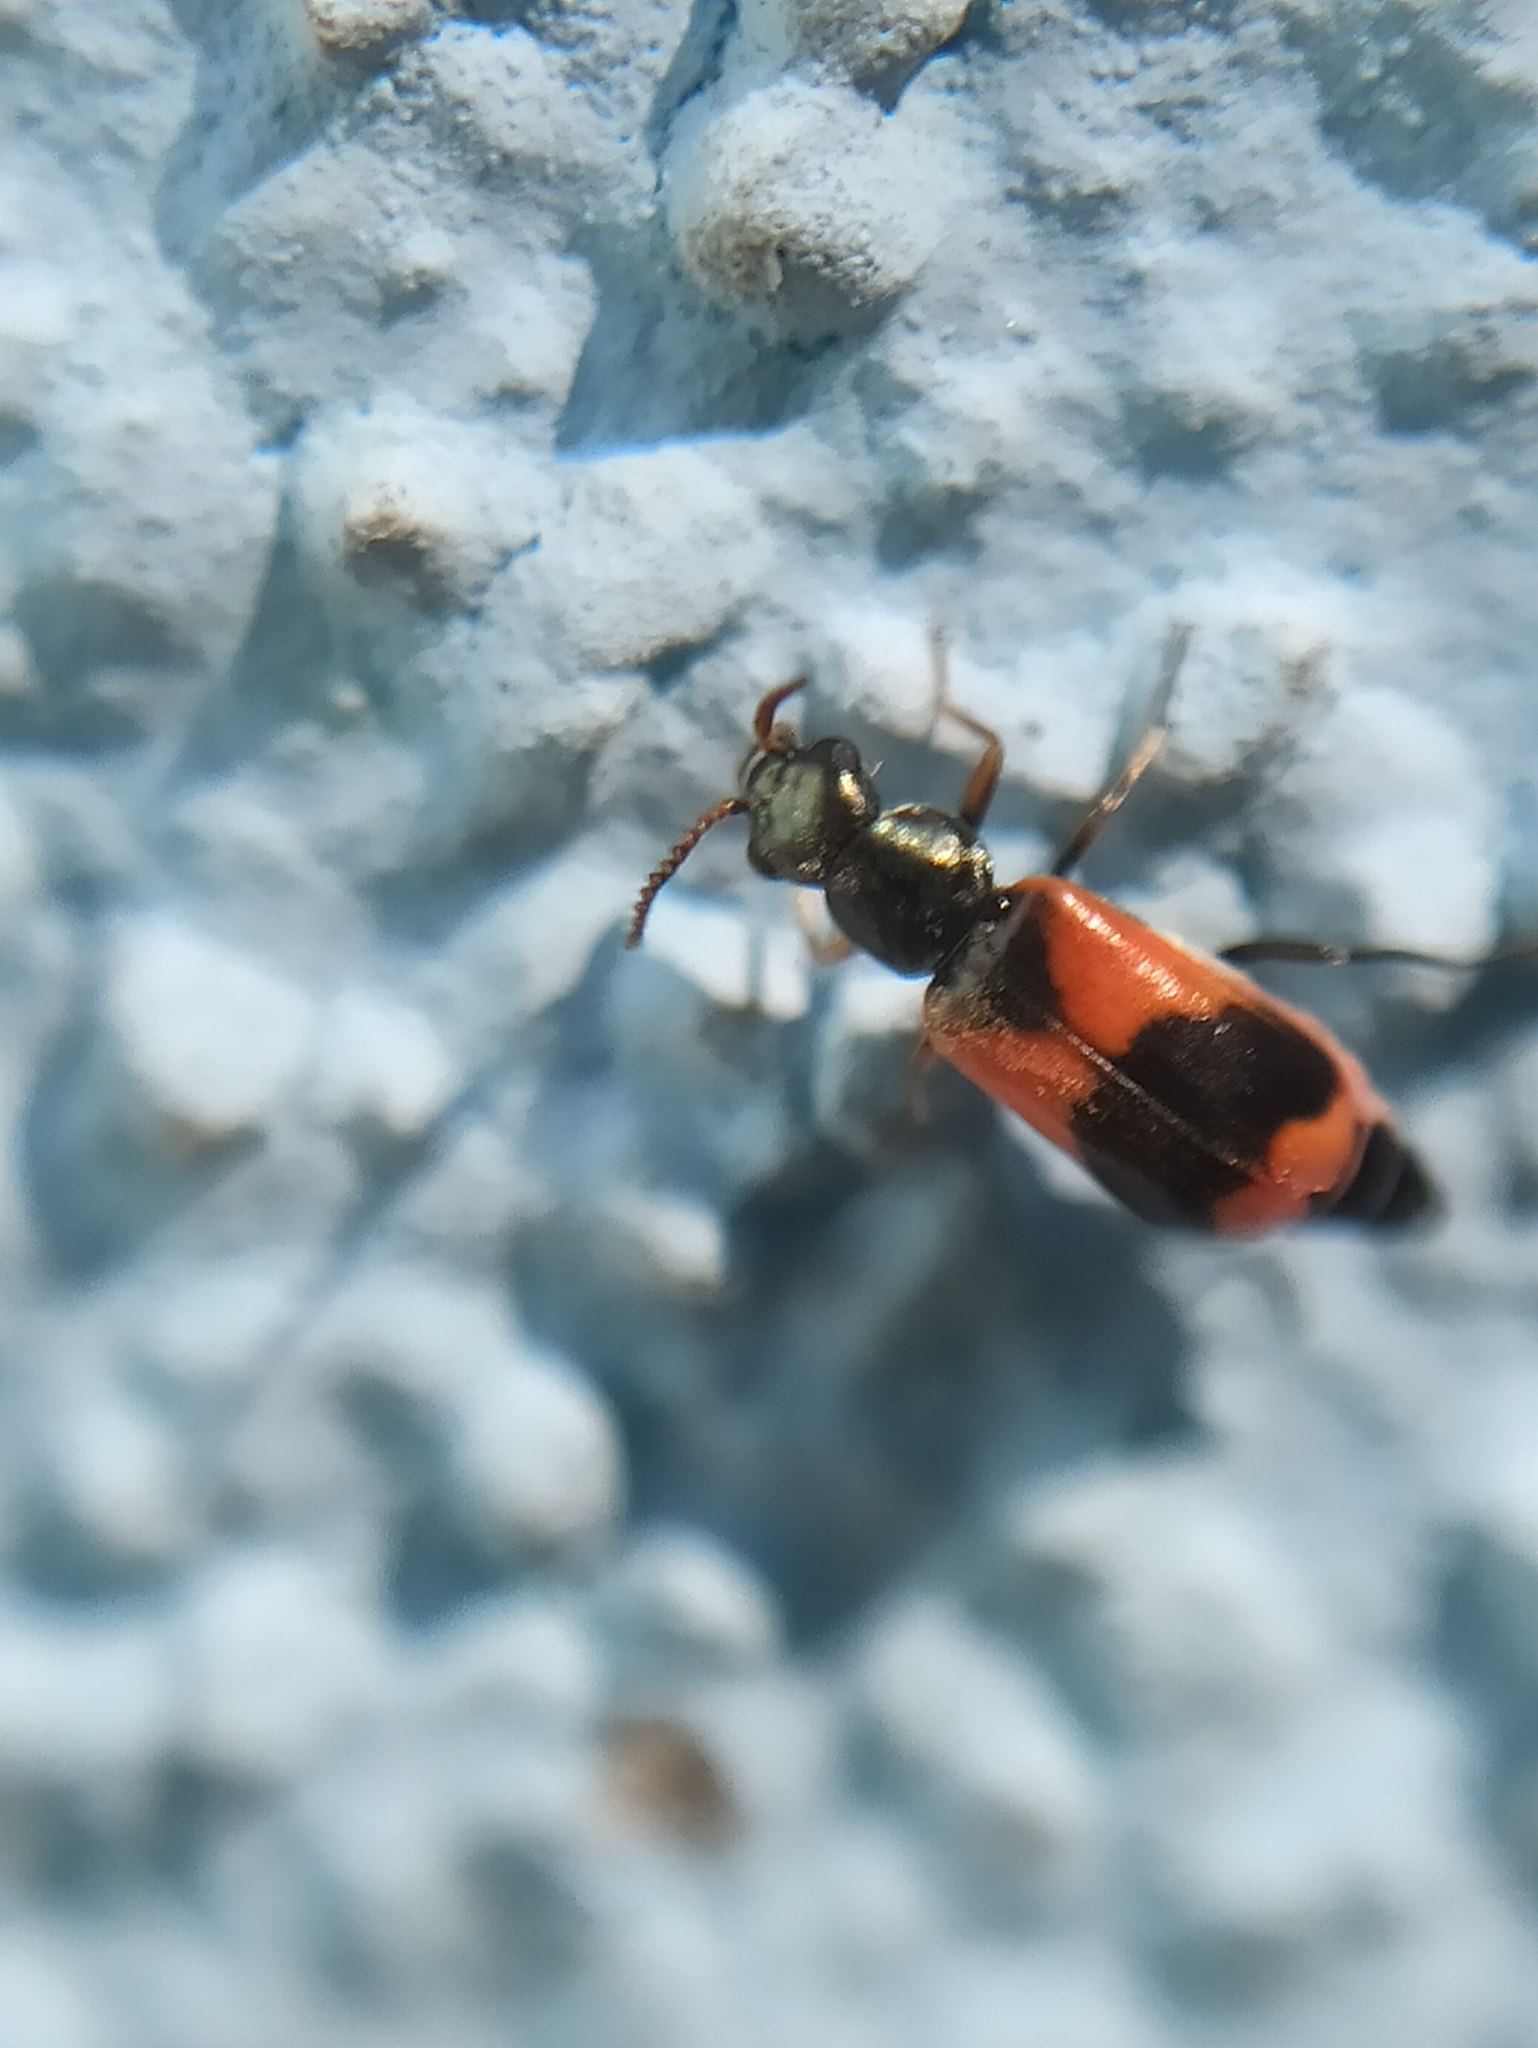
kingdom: Animalia
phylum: Arthropoda
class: Insecta
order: Coleoptera
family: Melyridae
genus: Anthocomus
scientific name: Anthocomus equestris
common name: Black-banded soft-winged flower beetle
